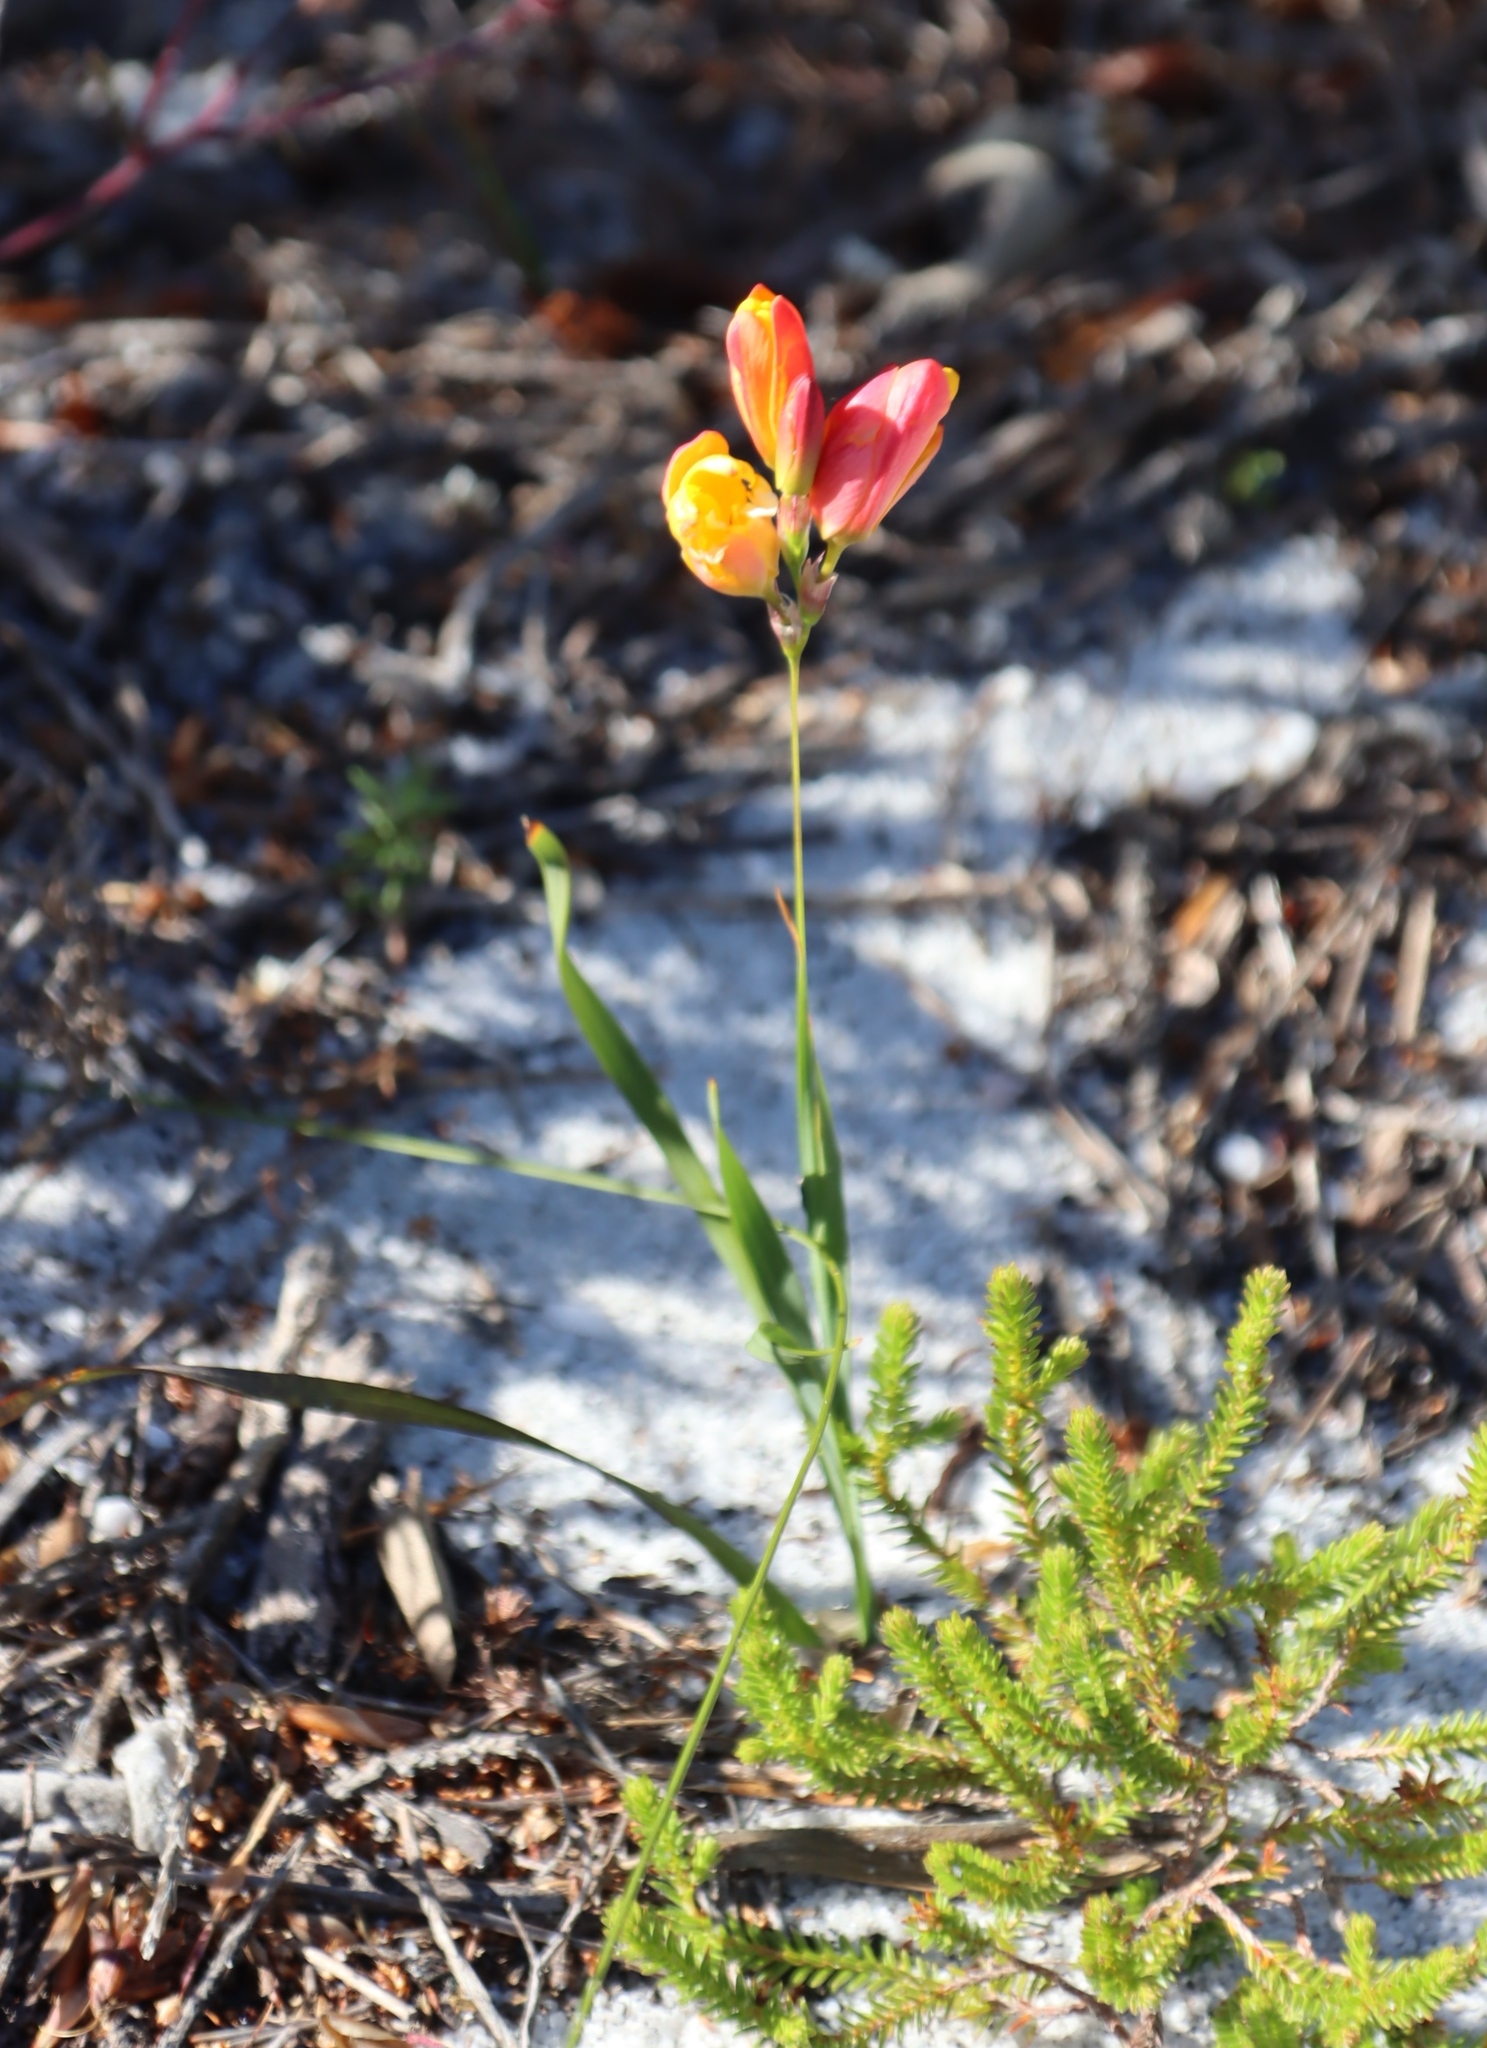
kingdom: Plantae
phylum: Tracheophyta
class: Liliopsida
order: Asparagales
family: Iridaceae
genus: Ixia
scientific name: Ixia dubia
